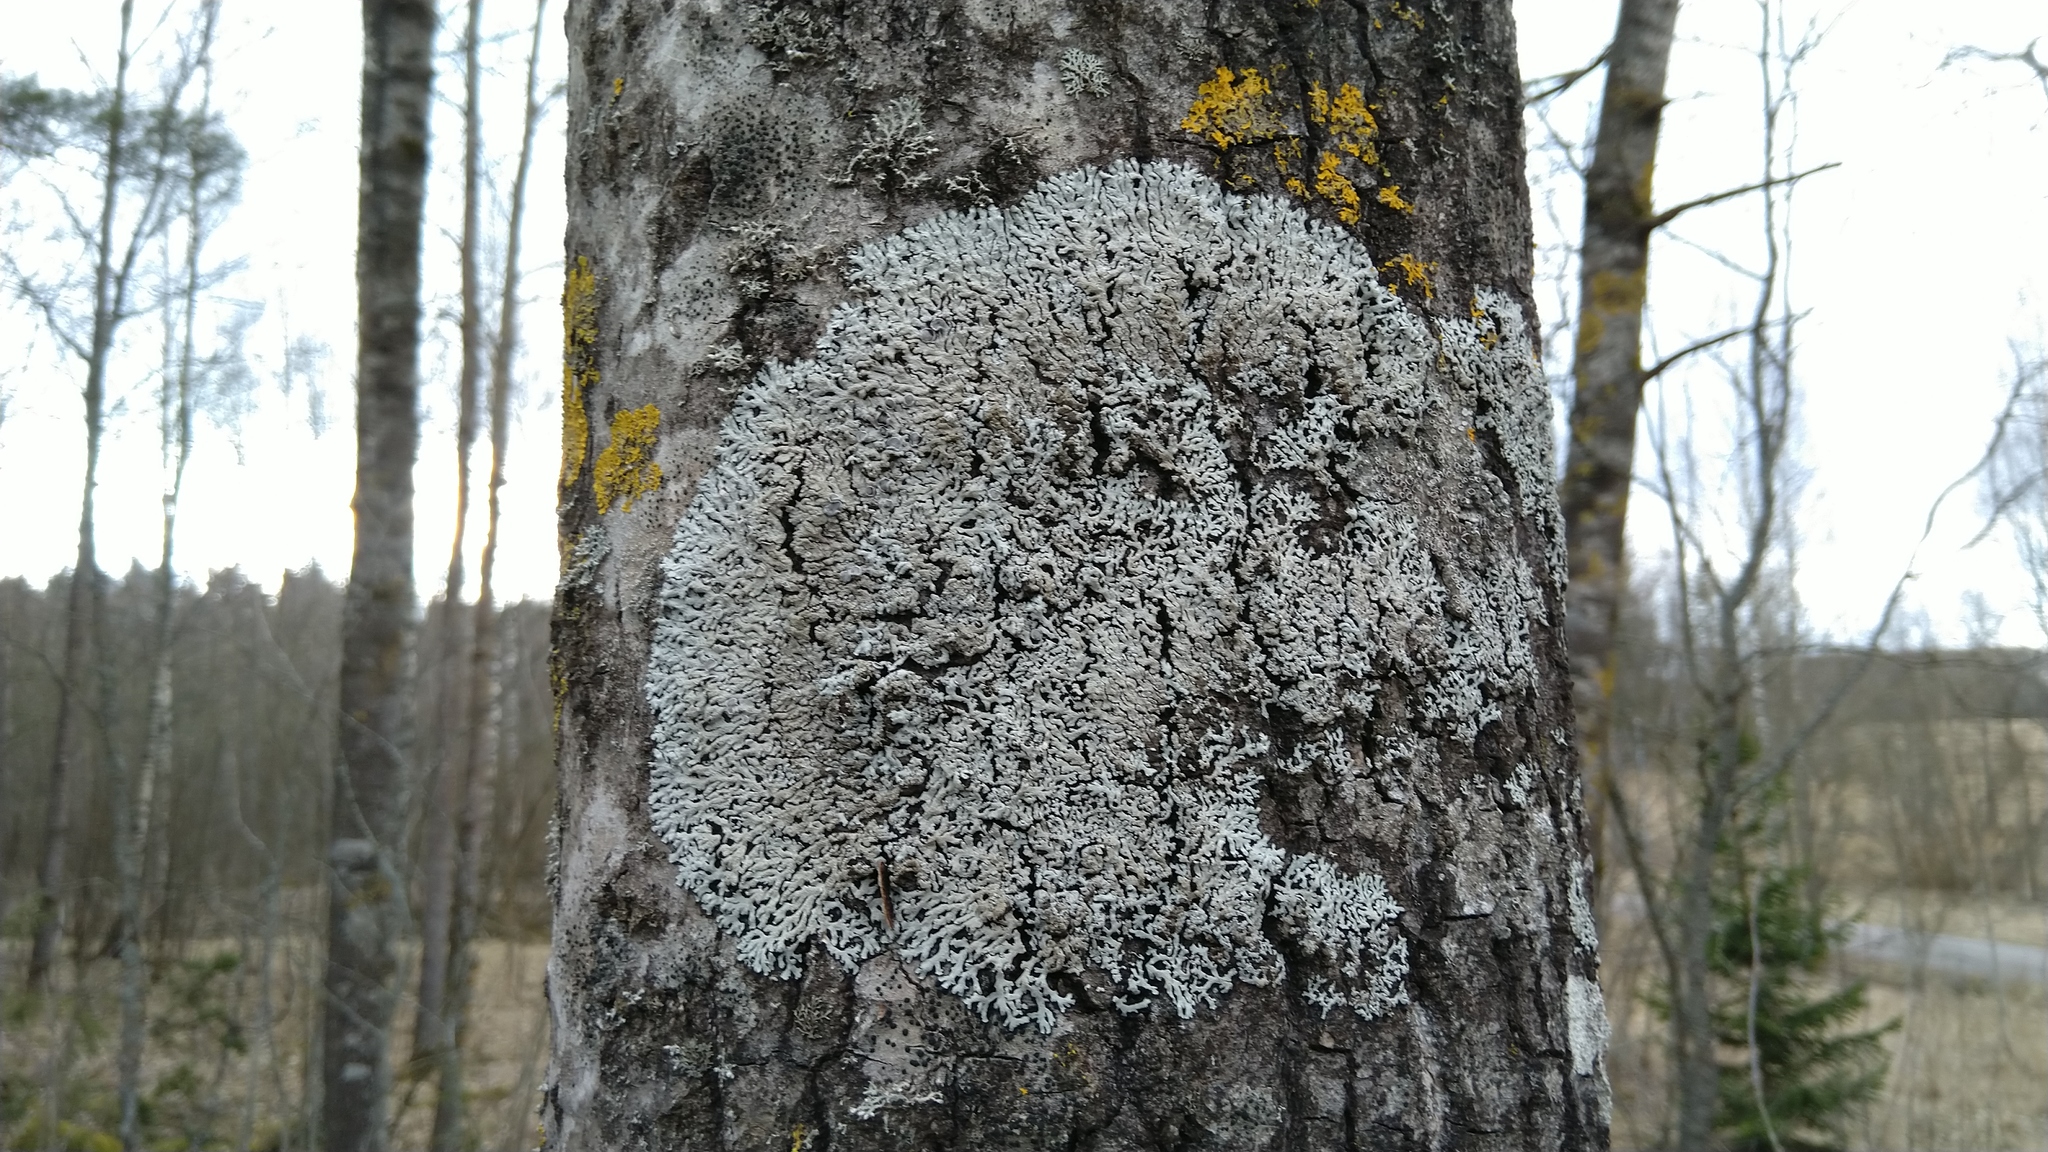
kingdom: Fungi
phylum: Ascomycota
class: Lecanoromycetes
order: Caliciales
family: Physciaceae
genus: Physcia
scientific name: Physcia aipolia
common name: Hoary rosette lichen
